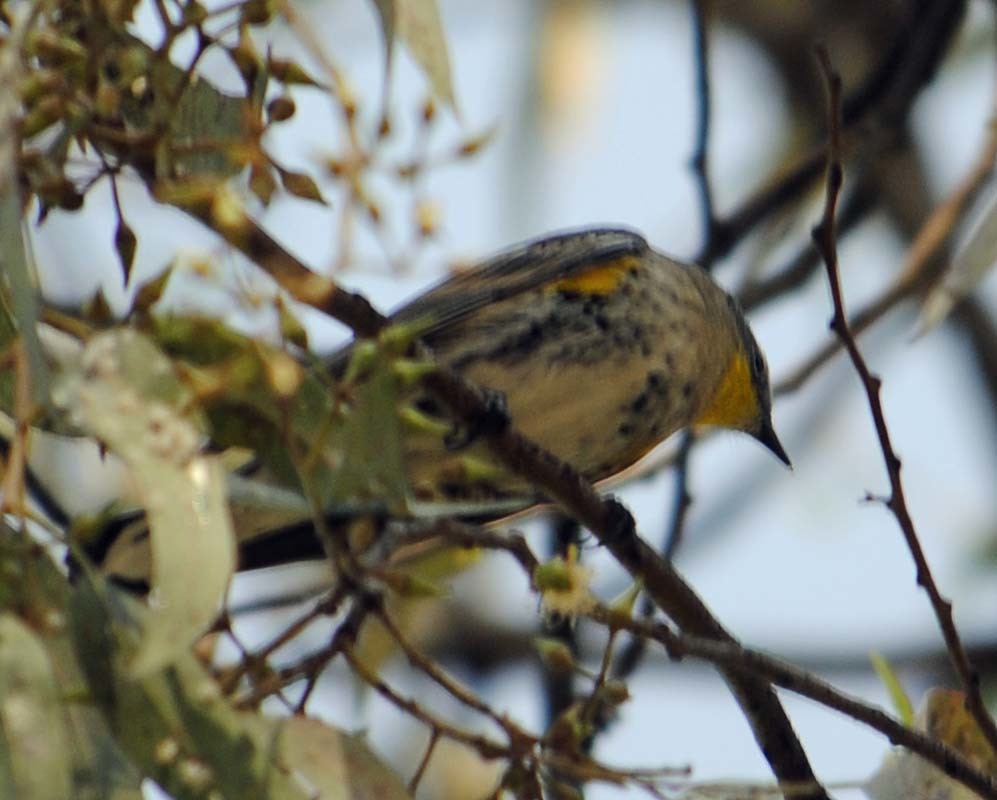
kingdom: Animalia
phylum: Chordata
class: Aves
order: Passeriformes
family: Parulidae
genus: Setophaga
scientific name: Setophaga coronata
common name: Myrtle warbler
